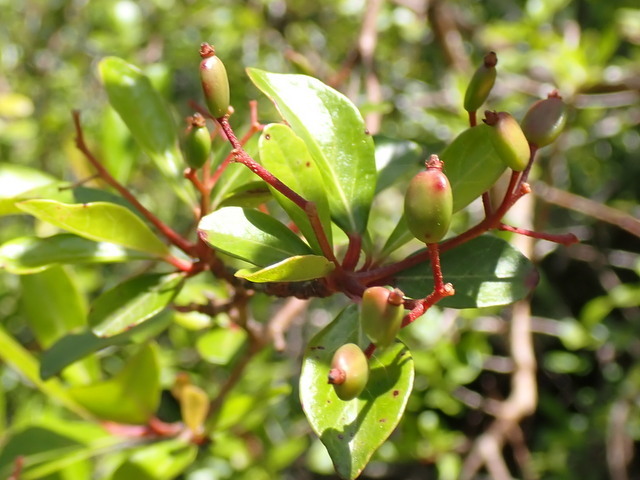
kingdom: Plantae
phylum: Tracheophyta
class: Magnoliopsida
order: Dipsacales
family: Viburnaceae
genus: Viburnum
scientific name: Viburnum obovatum
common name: Walter's viburnum
